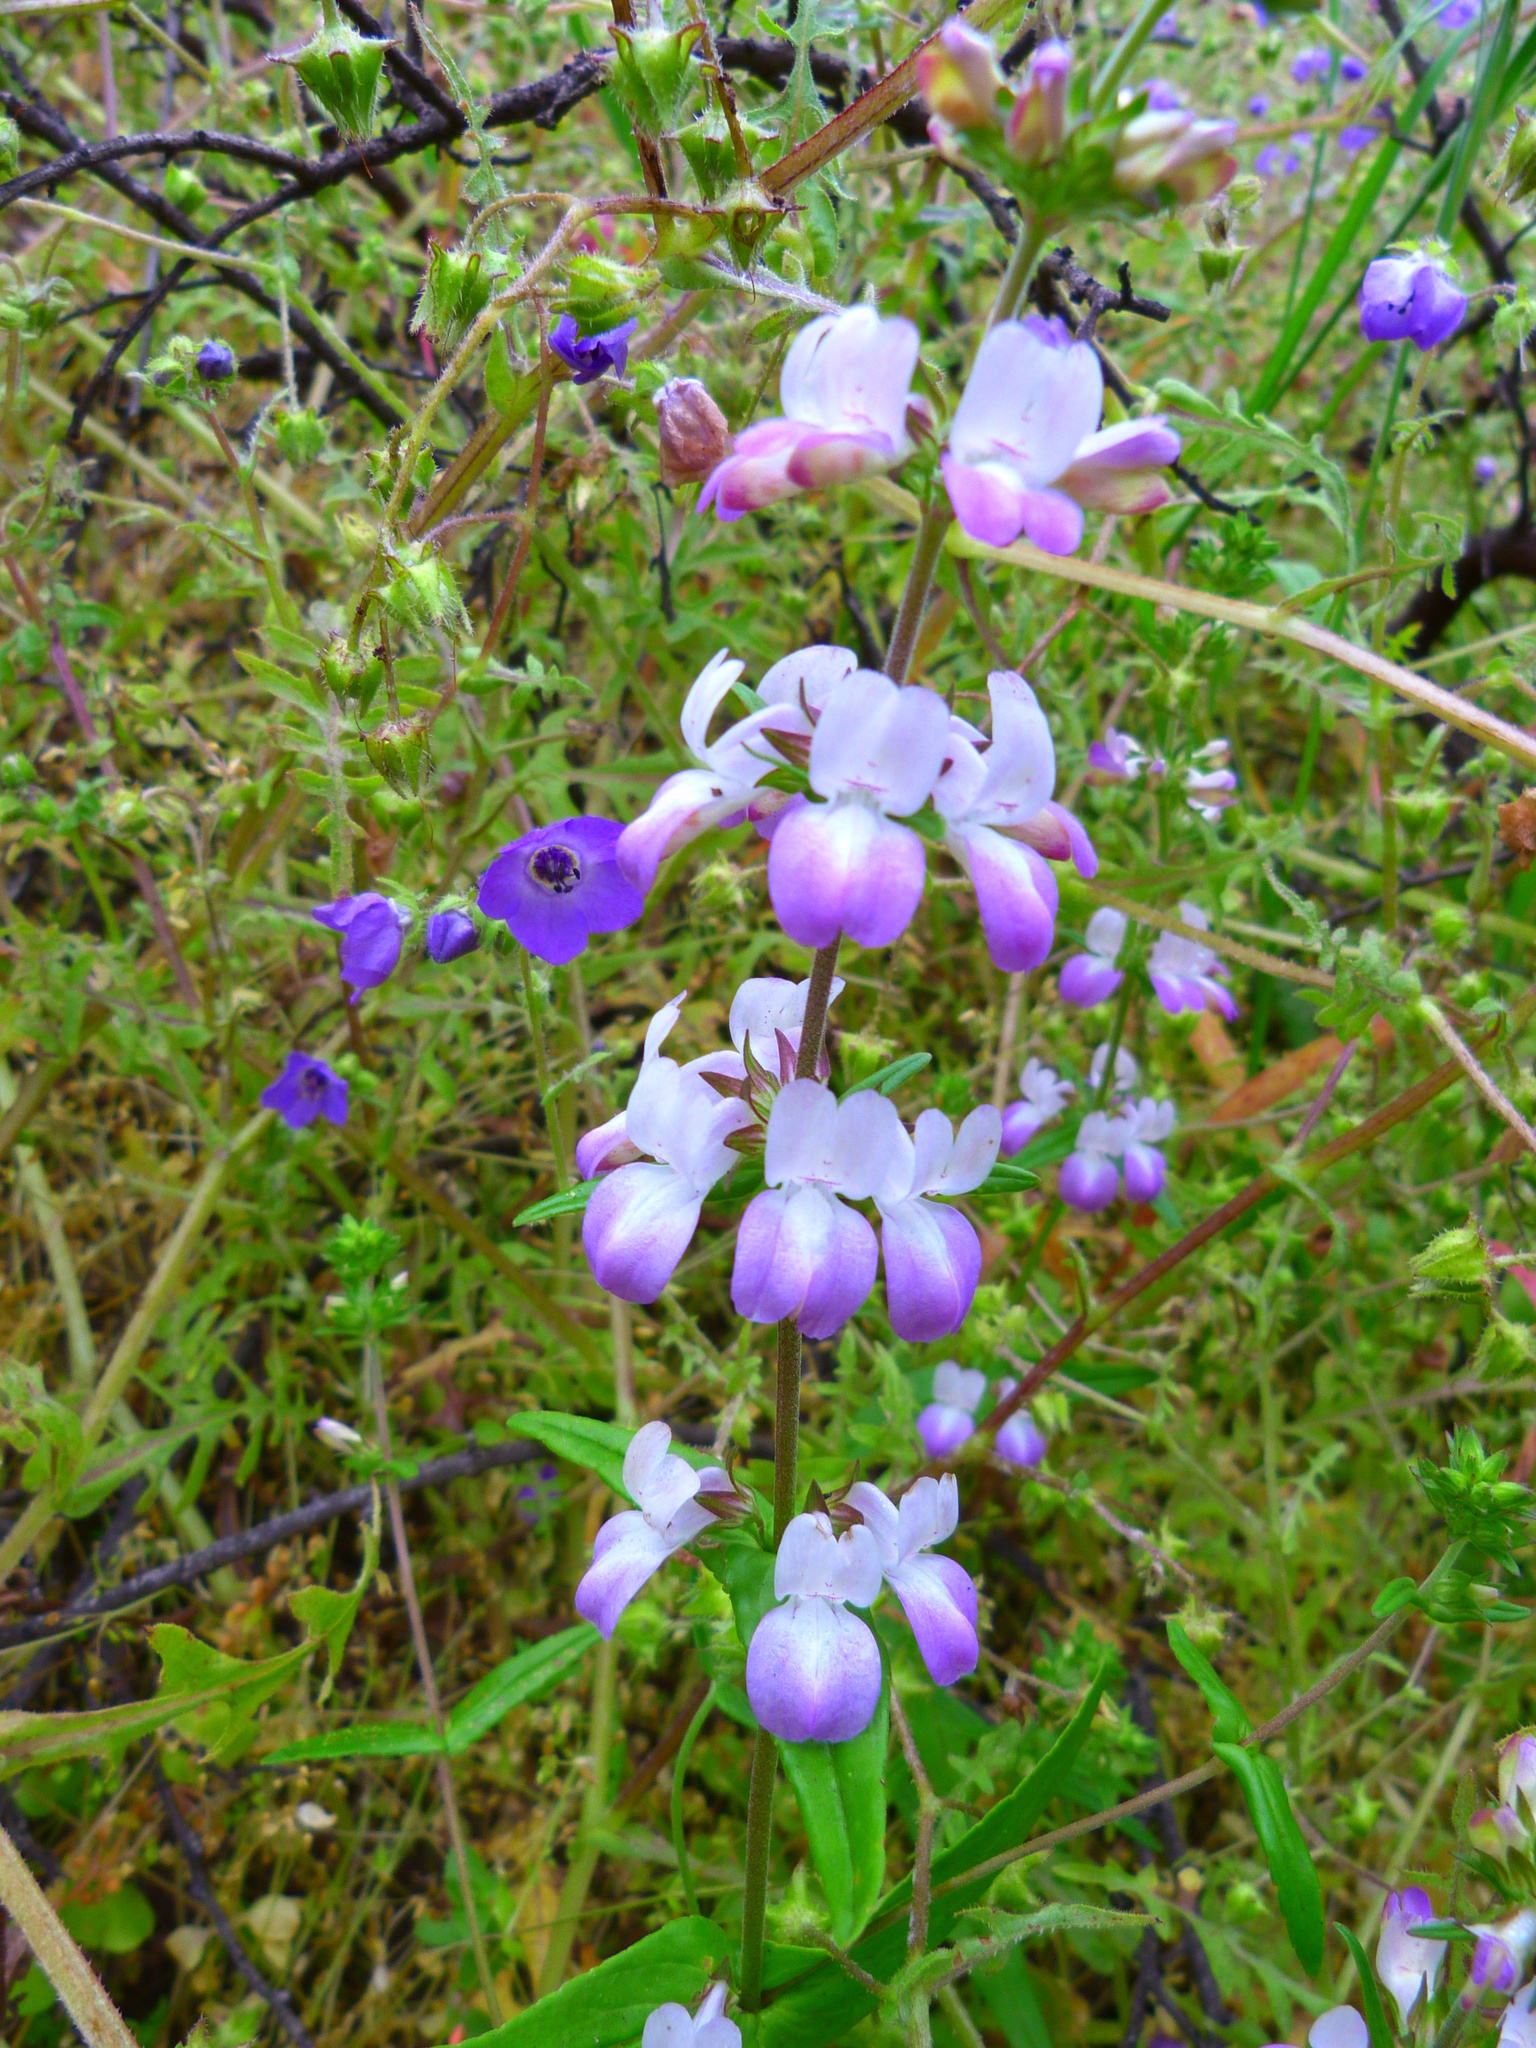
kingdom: Plantae
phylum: Tracheophyta
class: Magnoliopsida
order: Lamiales
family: Plantaginaceae
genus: Collinsia
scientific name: Collinsia heterophylla
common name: Chinese-houses
